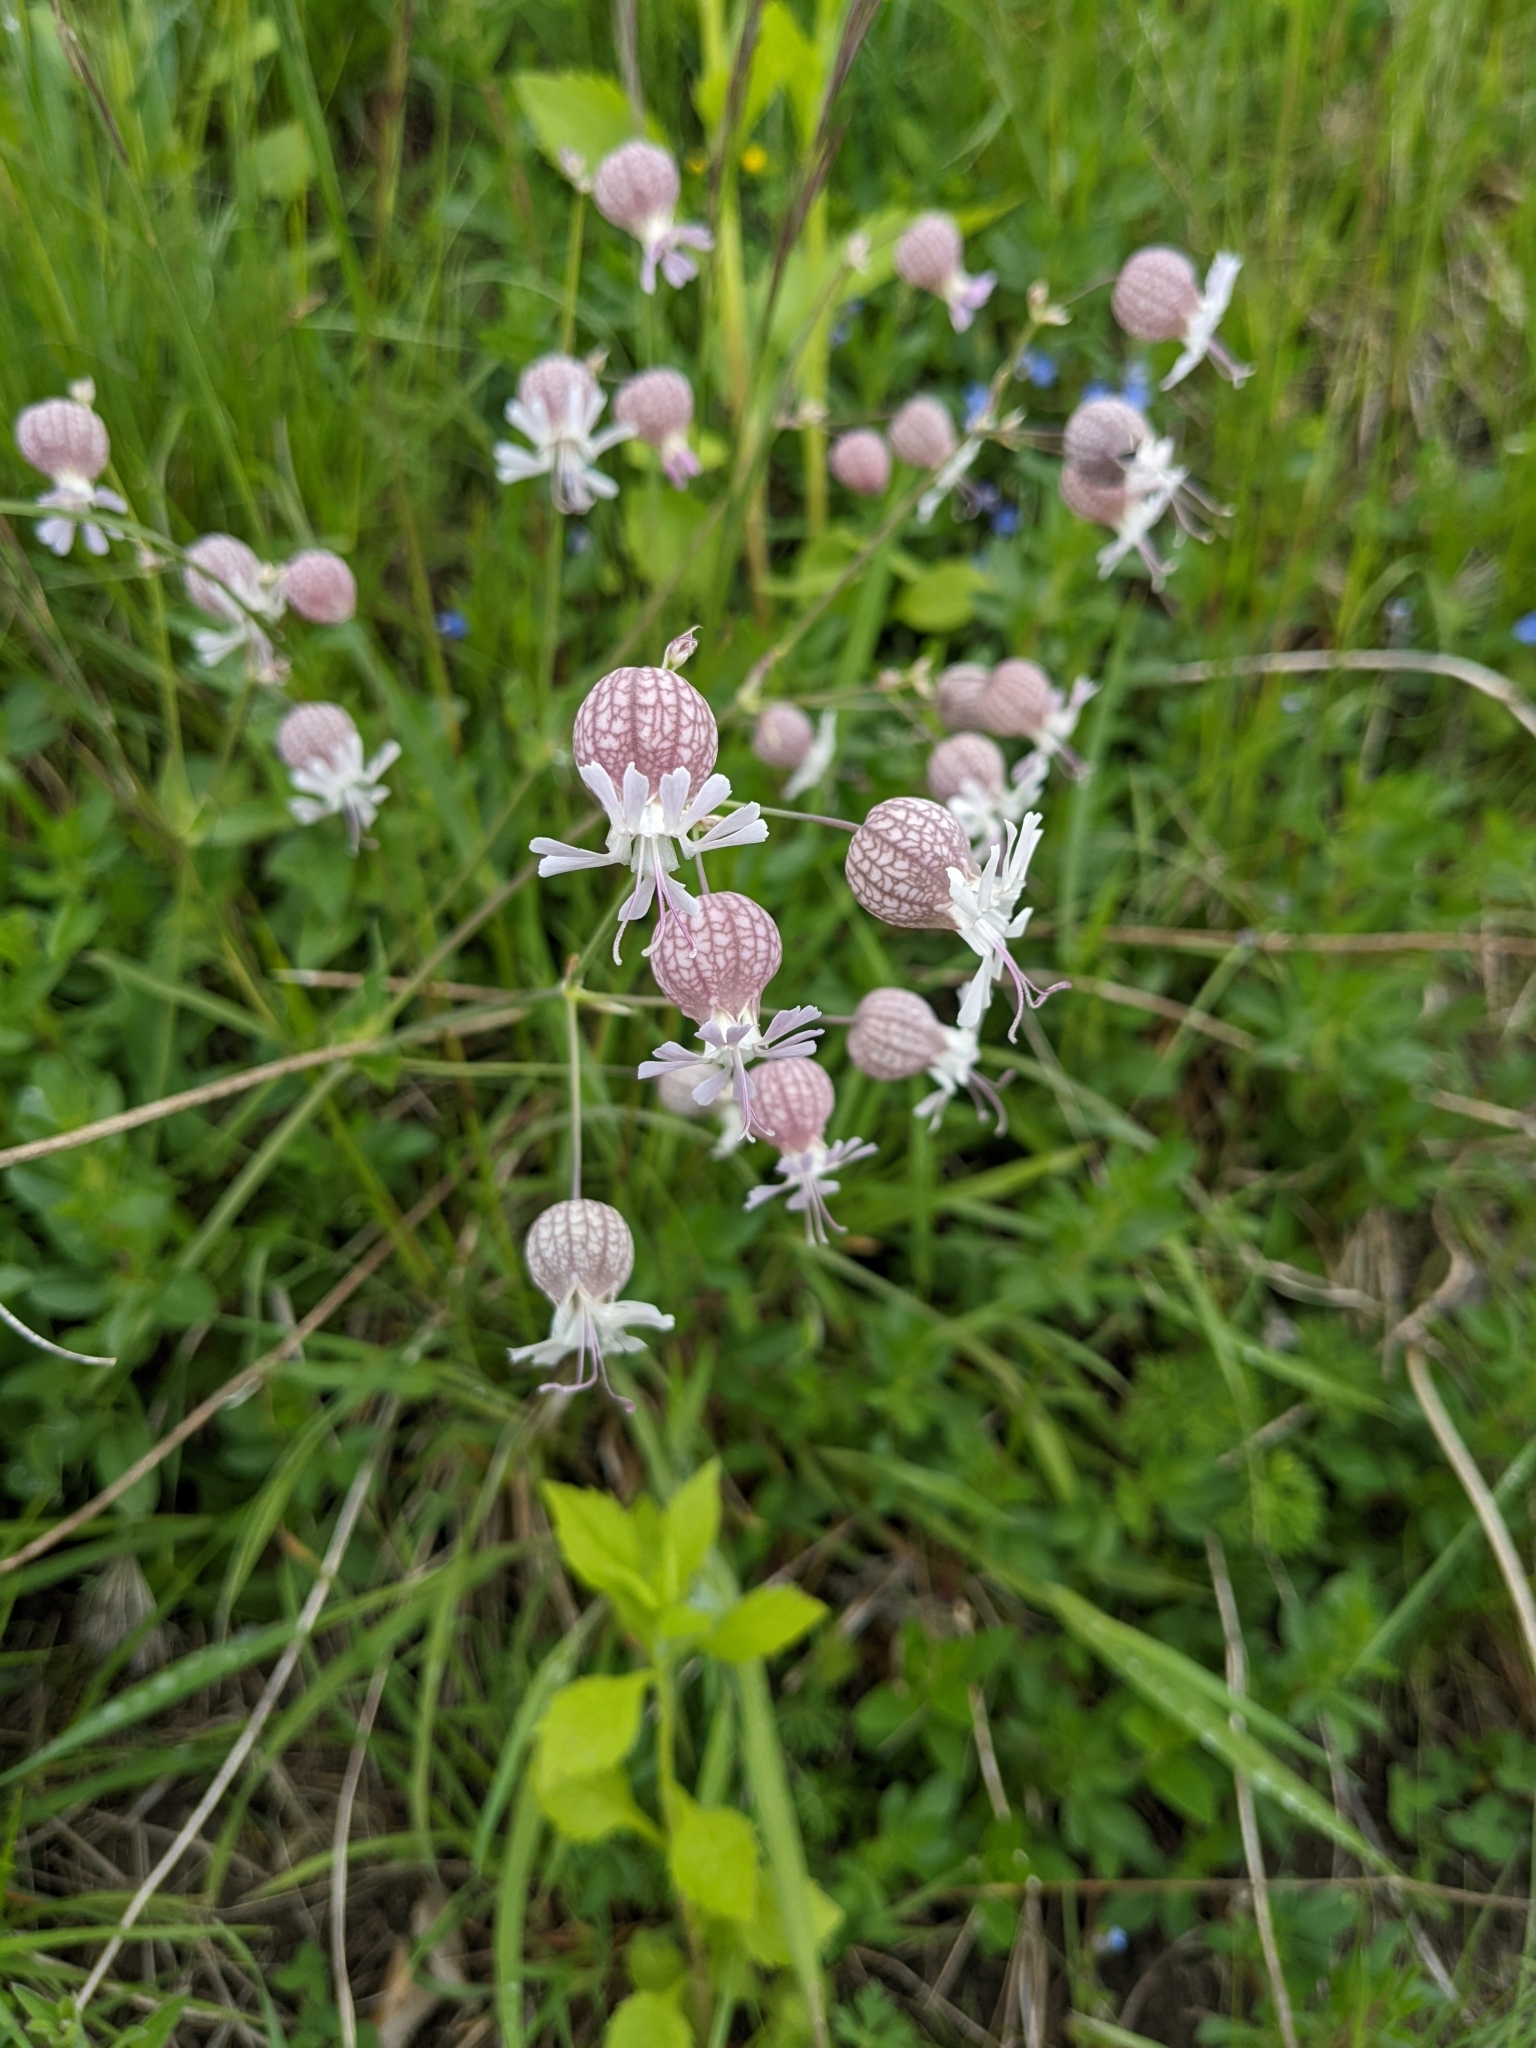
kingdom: Plantae
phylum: Tracheophyta
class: Magnoliopsida
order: Caryophyllales
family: Caryophyllaceae
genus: Silene
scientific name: Silene vulgaris
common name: Bladder campion
